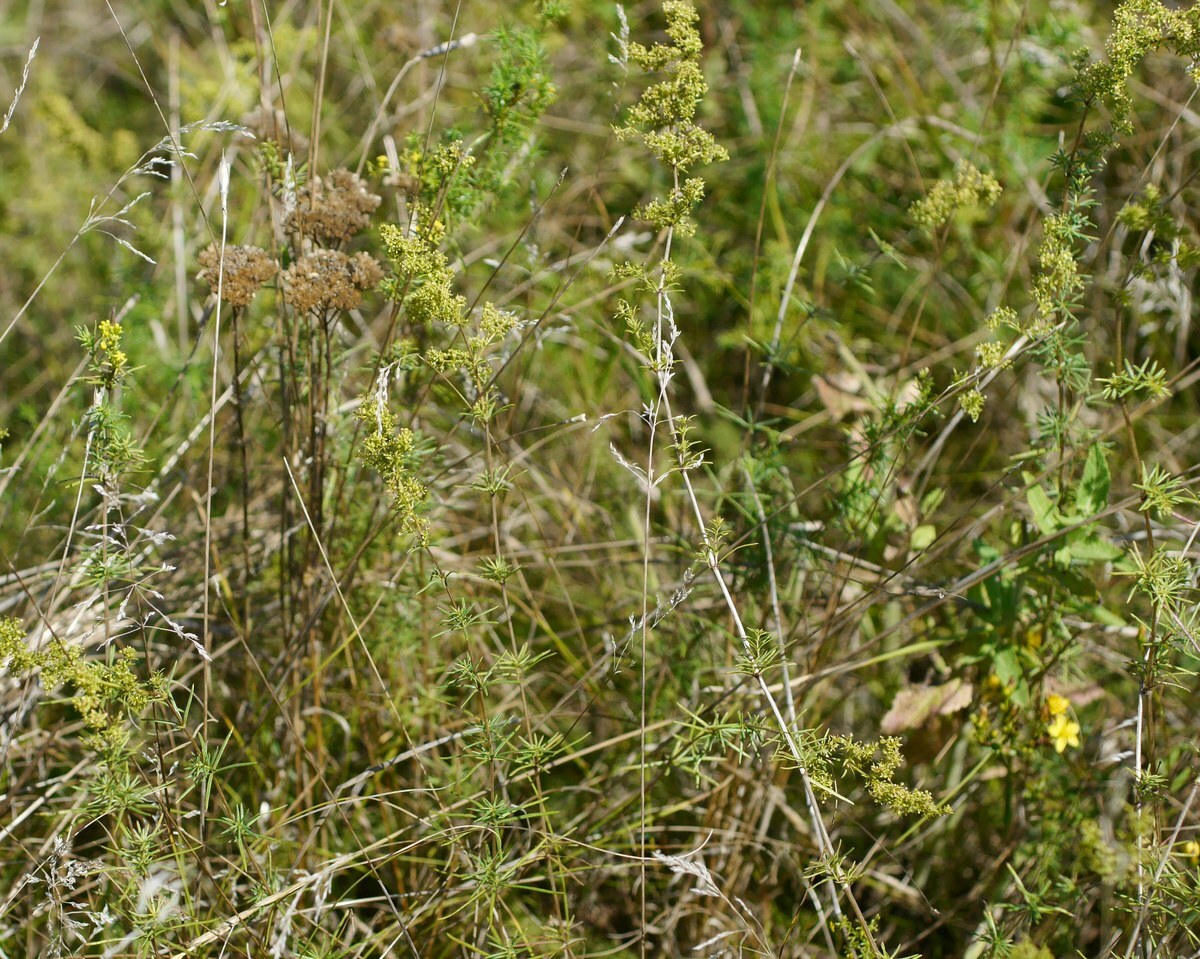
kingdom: Plantae
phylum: Tracheophyta
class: Magnoliopsida
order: Gentianales
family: Rubiaceae
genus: Galium
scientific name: Galium verum
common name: Lady's bedstraw
